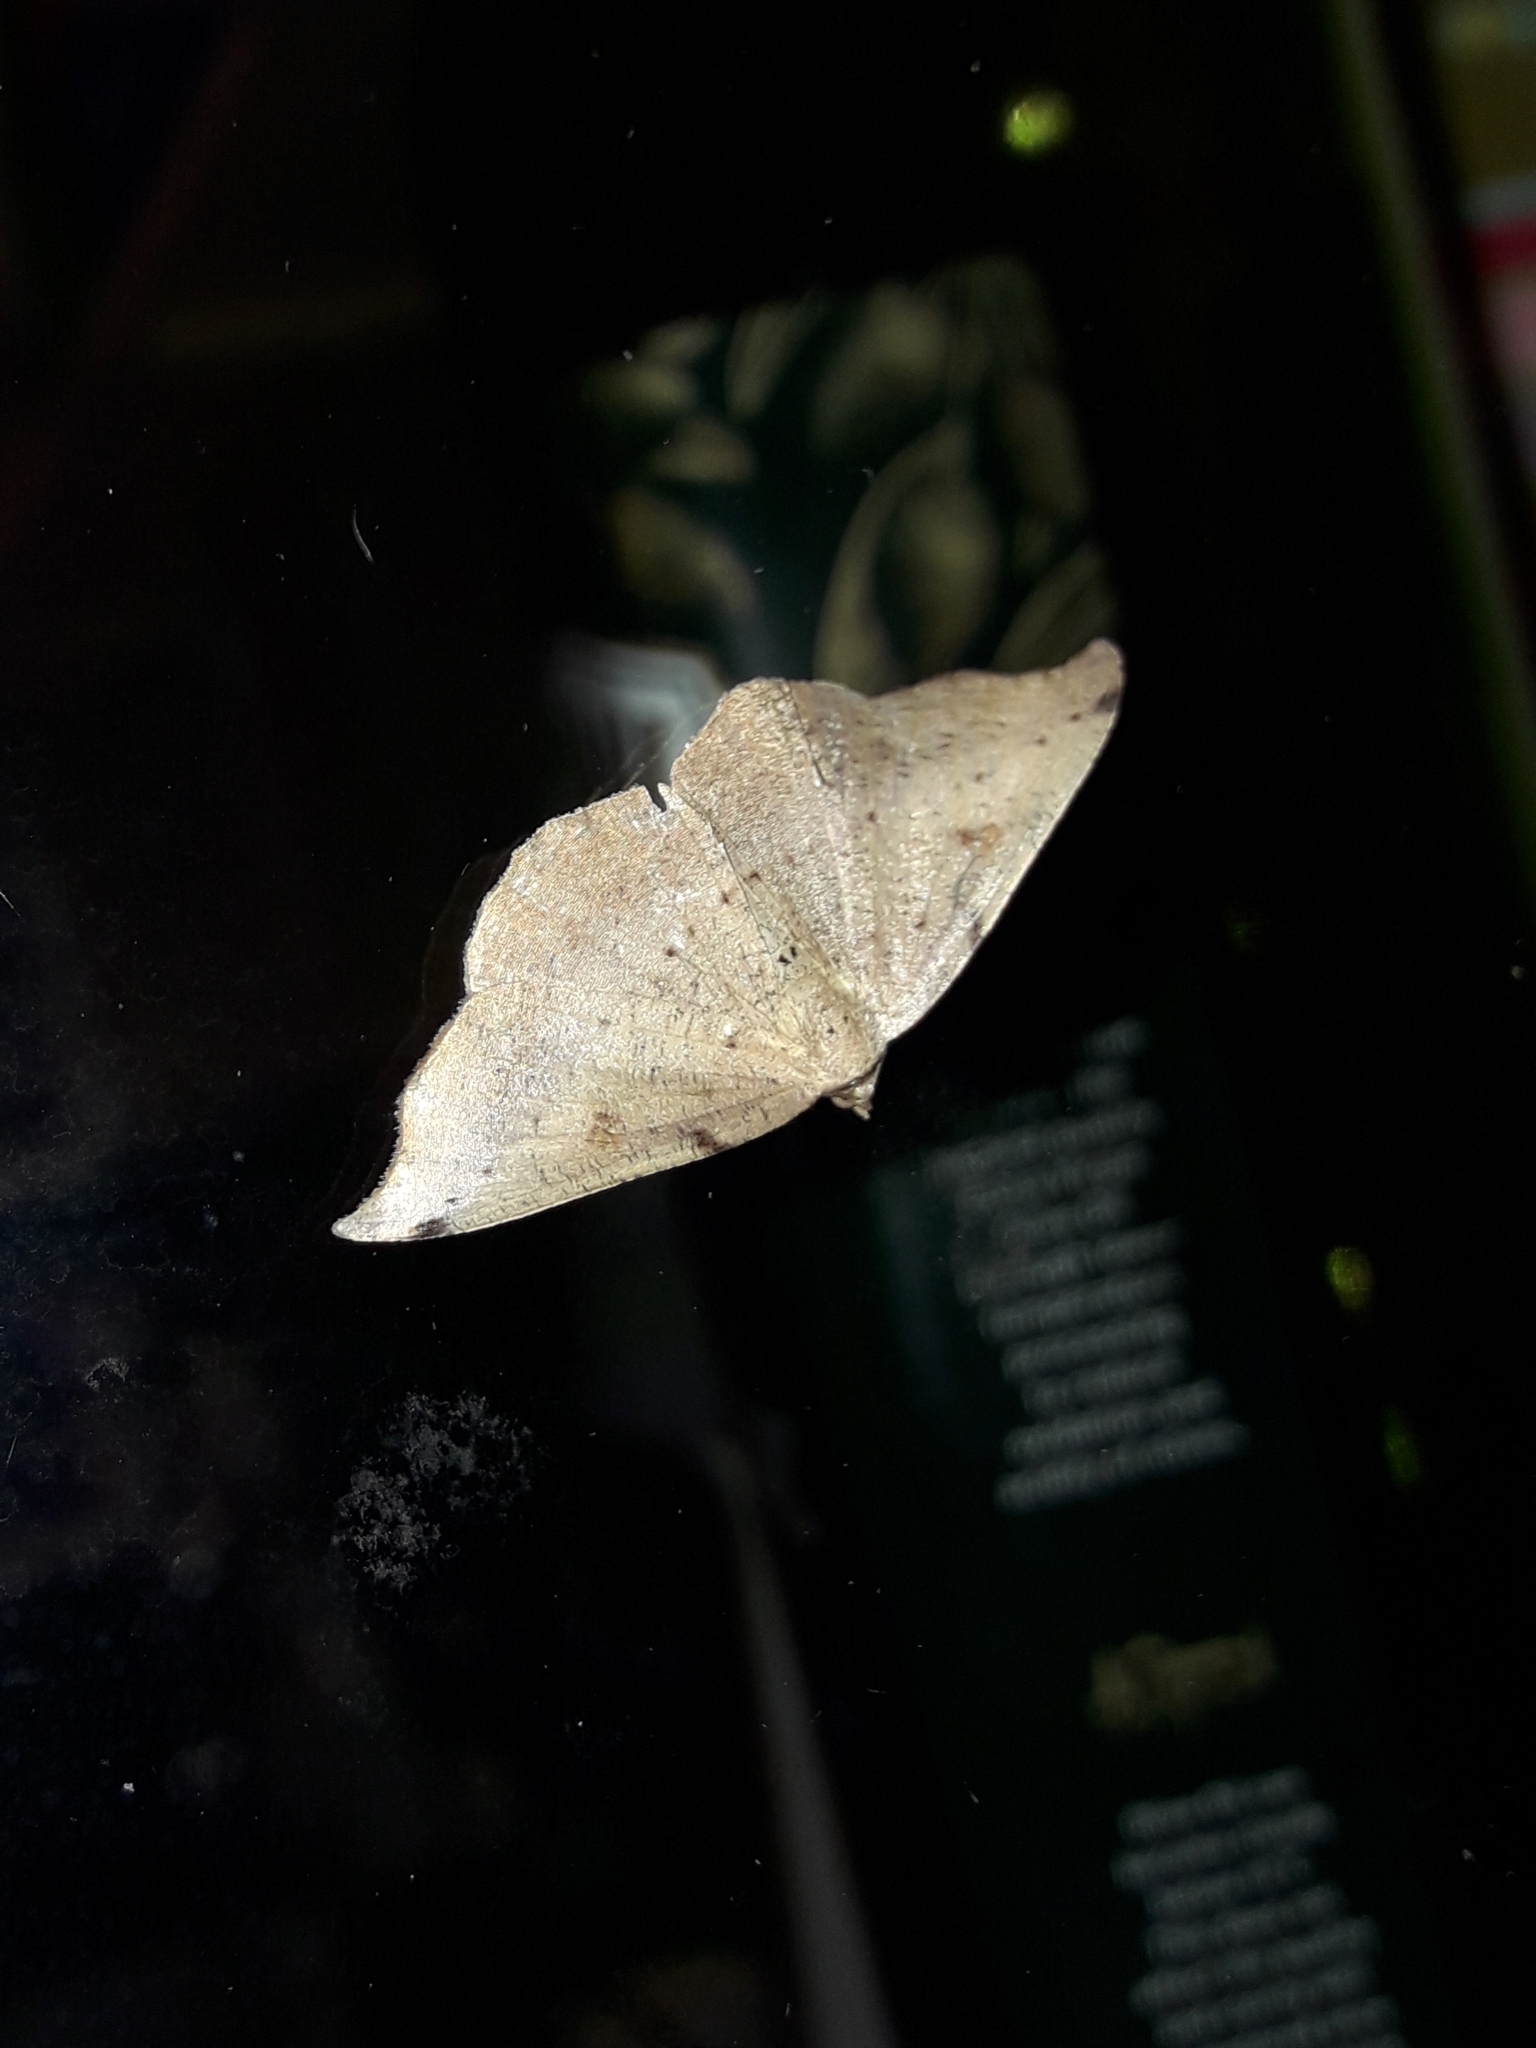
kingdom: Animalia
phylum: Arthropoda
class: Insecta
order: Lepidoptera
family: Geometridae
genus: Sarisa
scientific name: Sarisa muriferata
